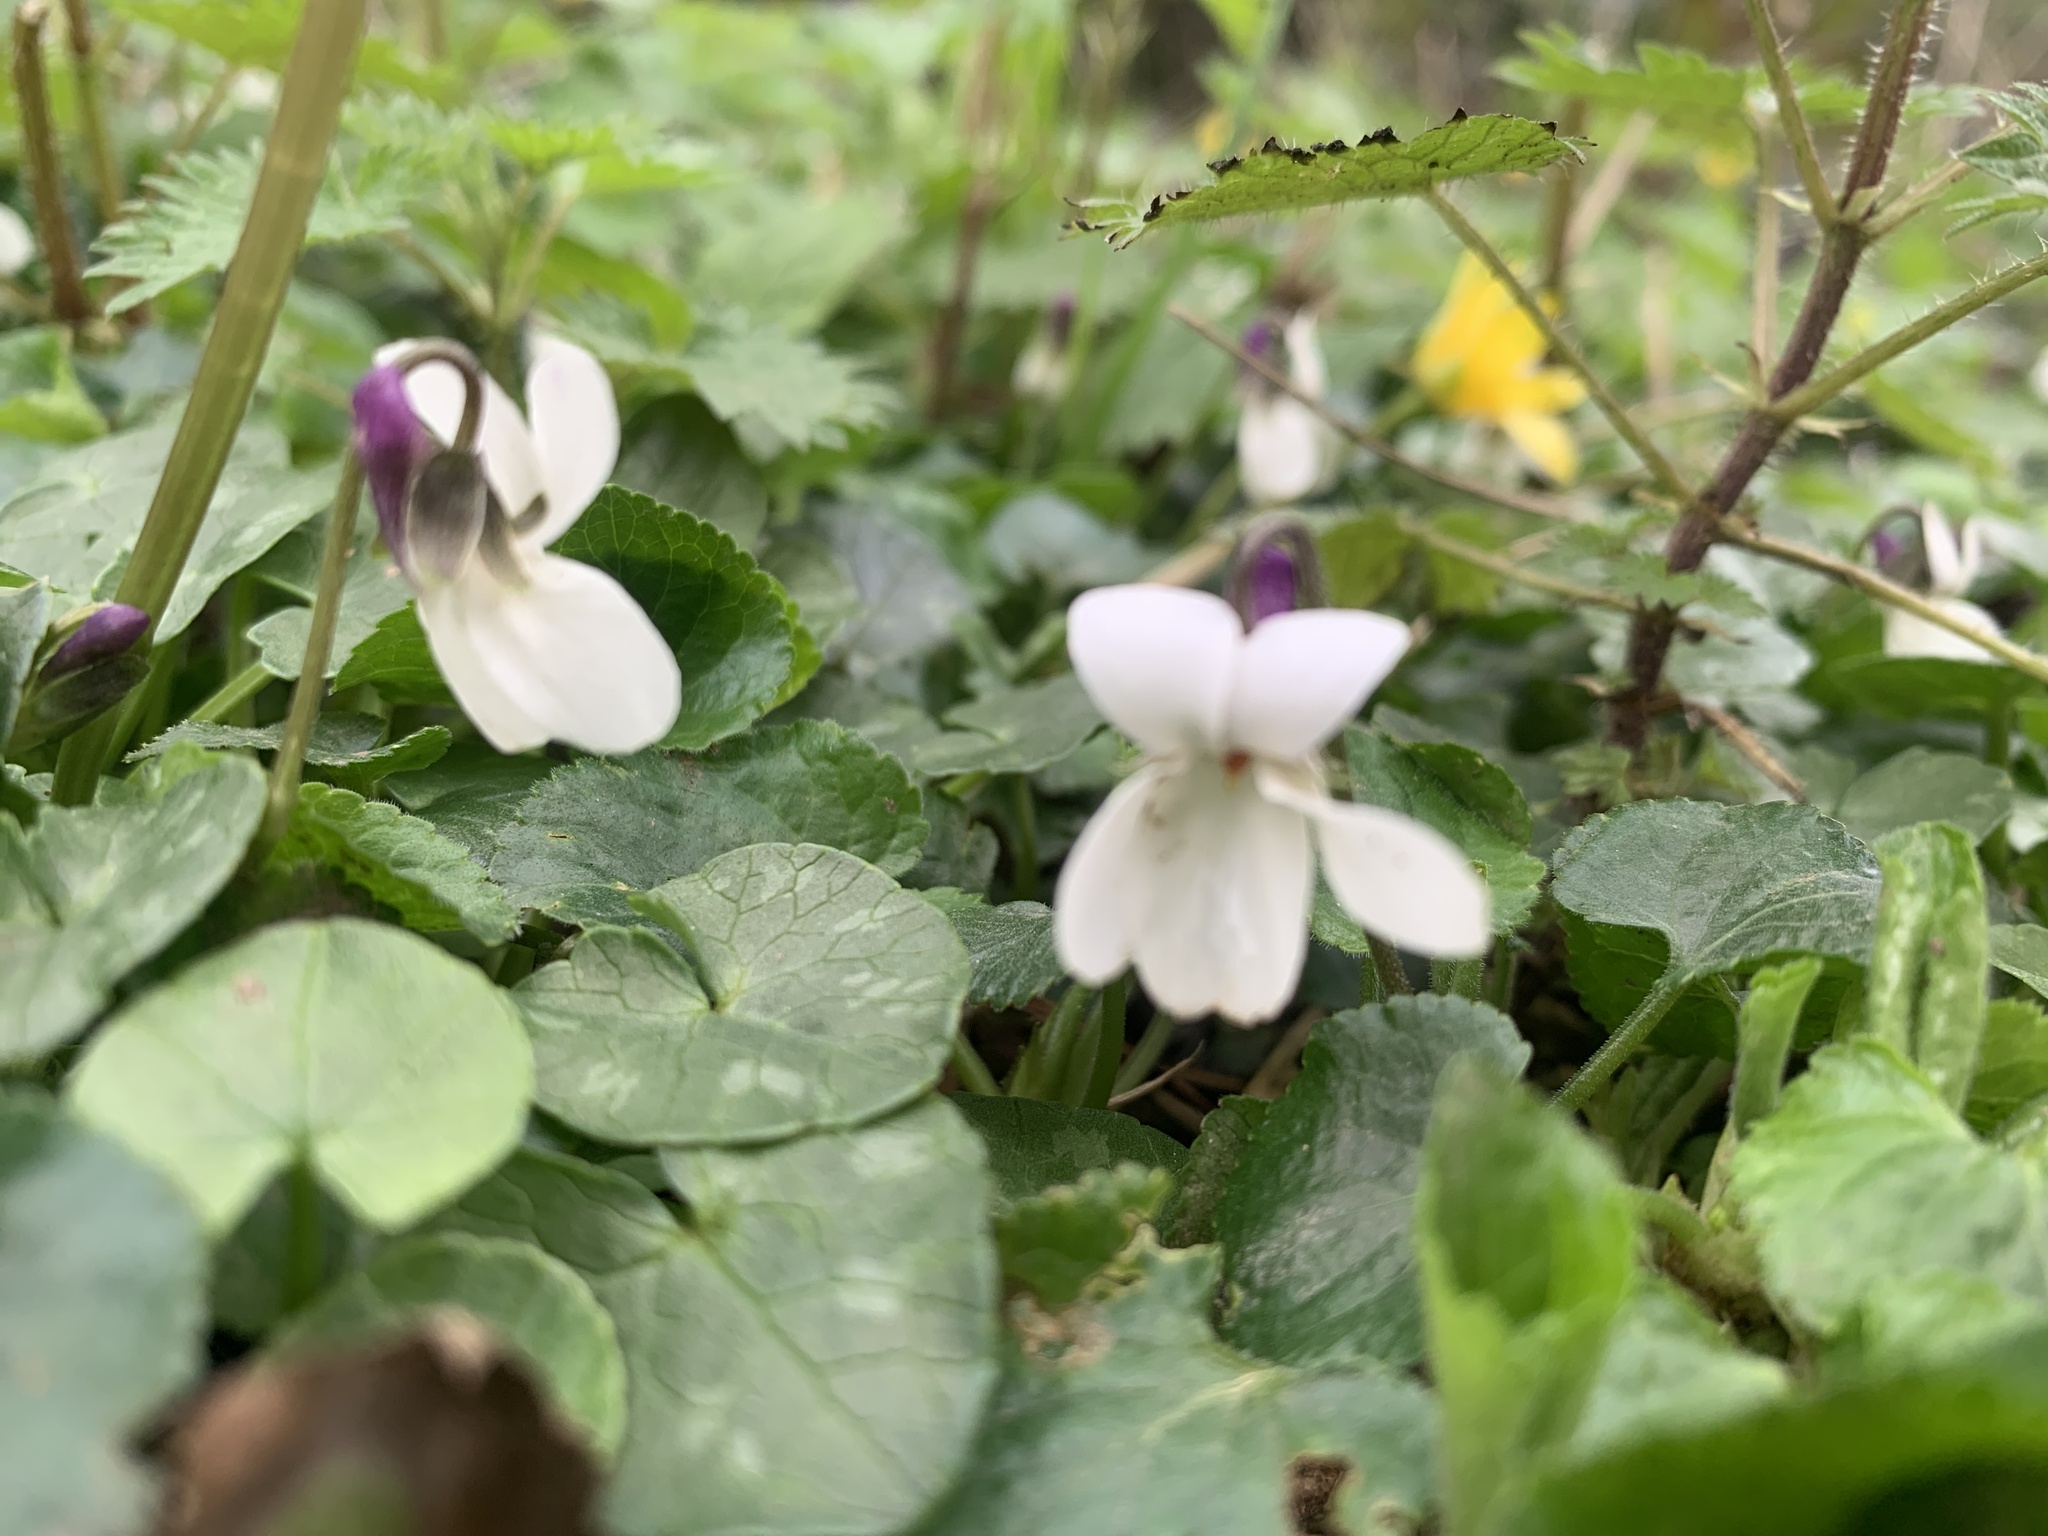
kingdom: Plantae
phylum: Tracheophyta
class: Magnoliopsida
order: Malpighiales
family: Violaceae
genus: Viola
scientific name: Viola odorata
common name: Sweet violet
